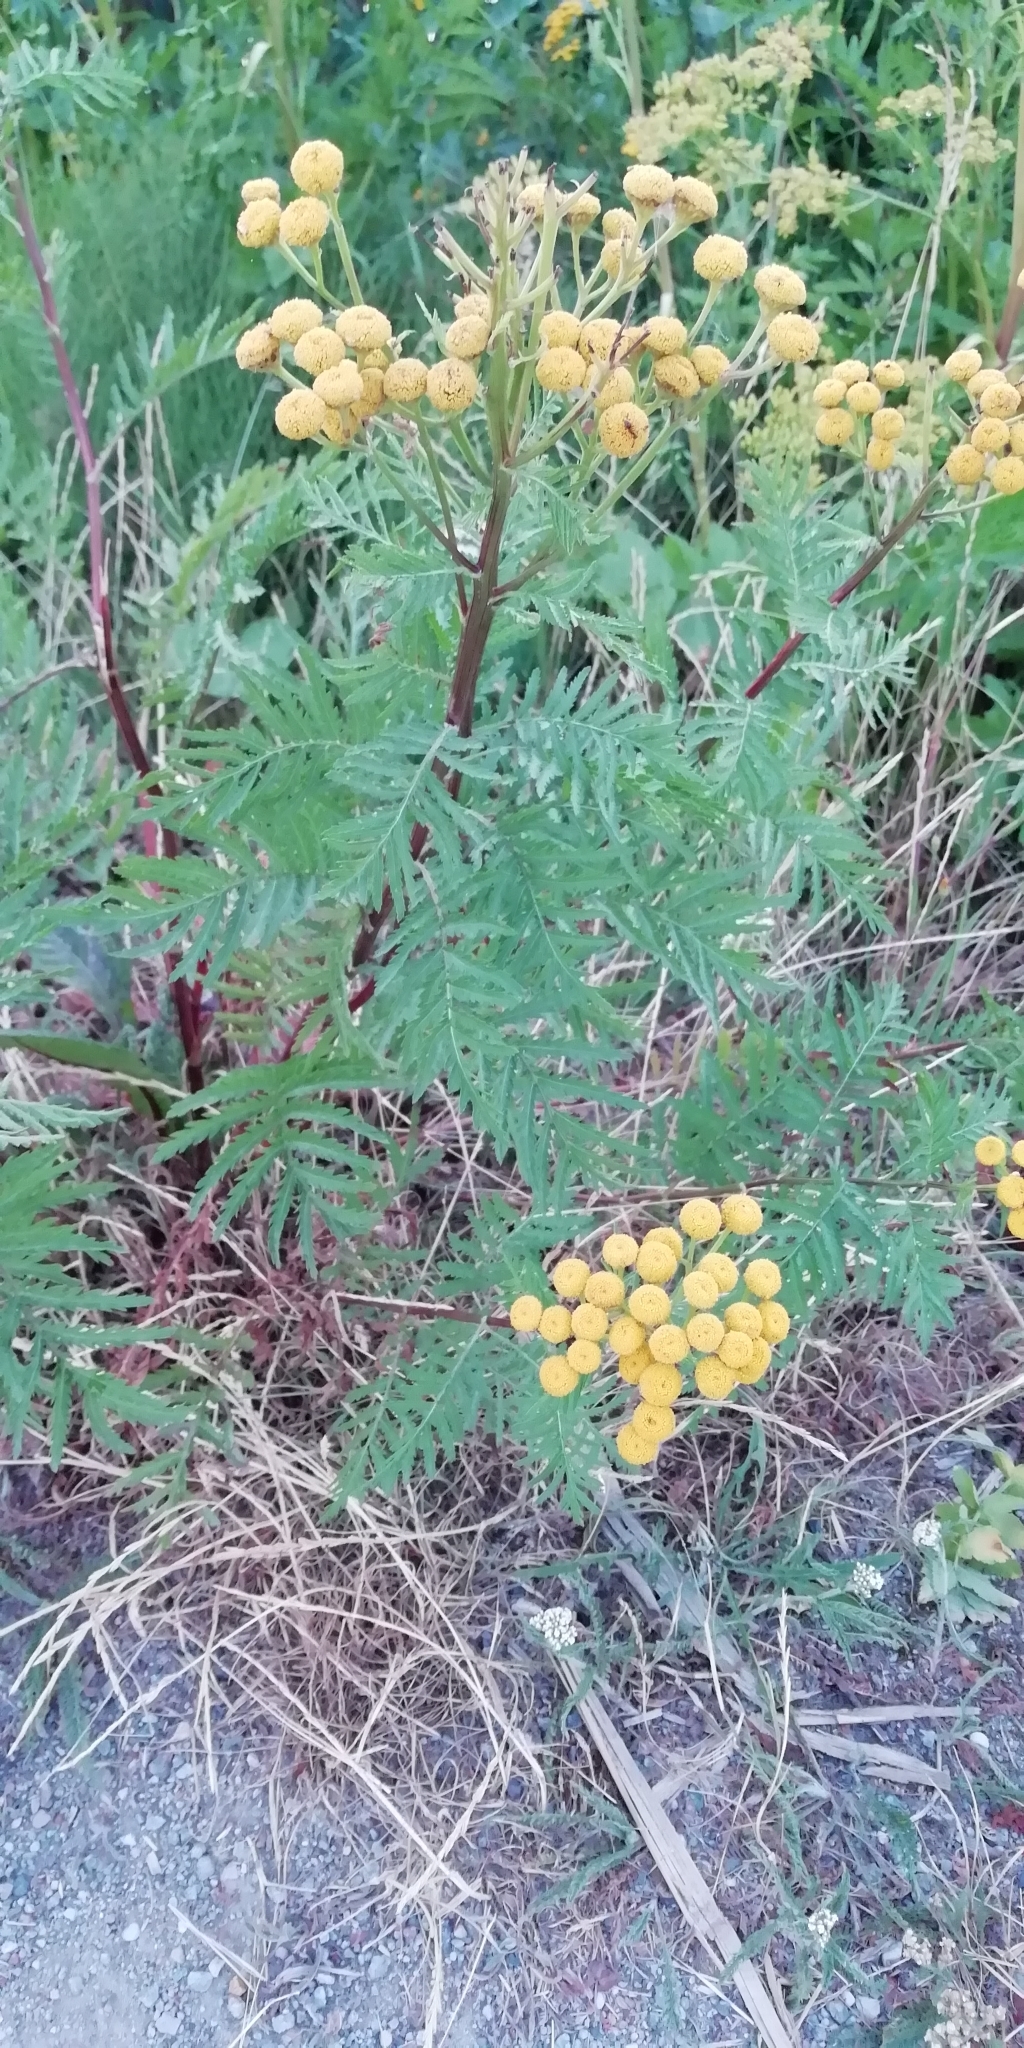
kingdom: Plantae
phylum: Tracheophyta
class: Magnoliopsida
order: Asterales
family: Asteraceae
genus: Tanacetum
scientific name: Tanacetum vulgare
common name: Common tansy
